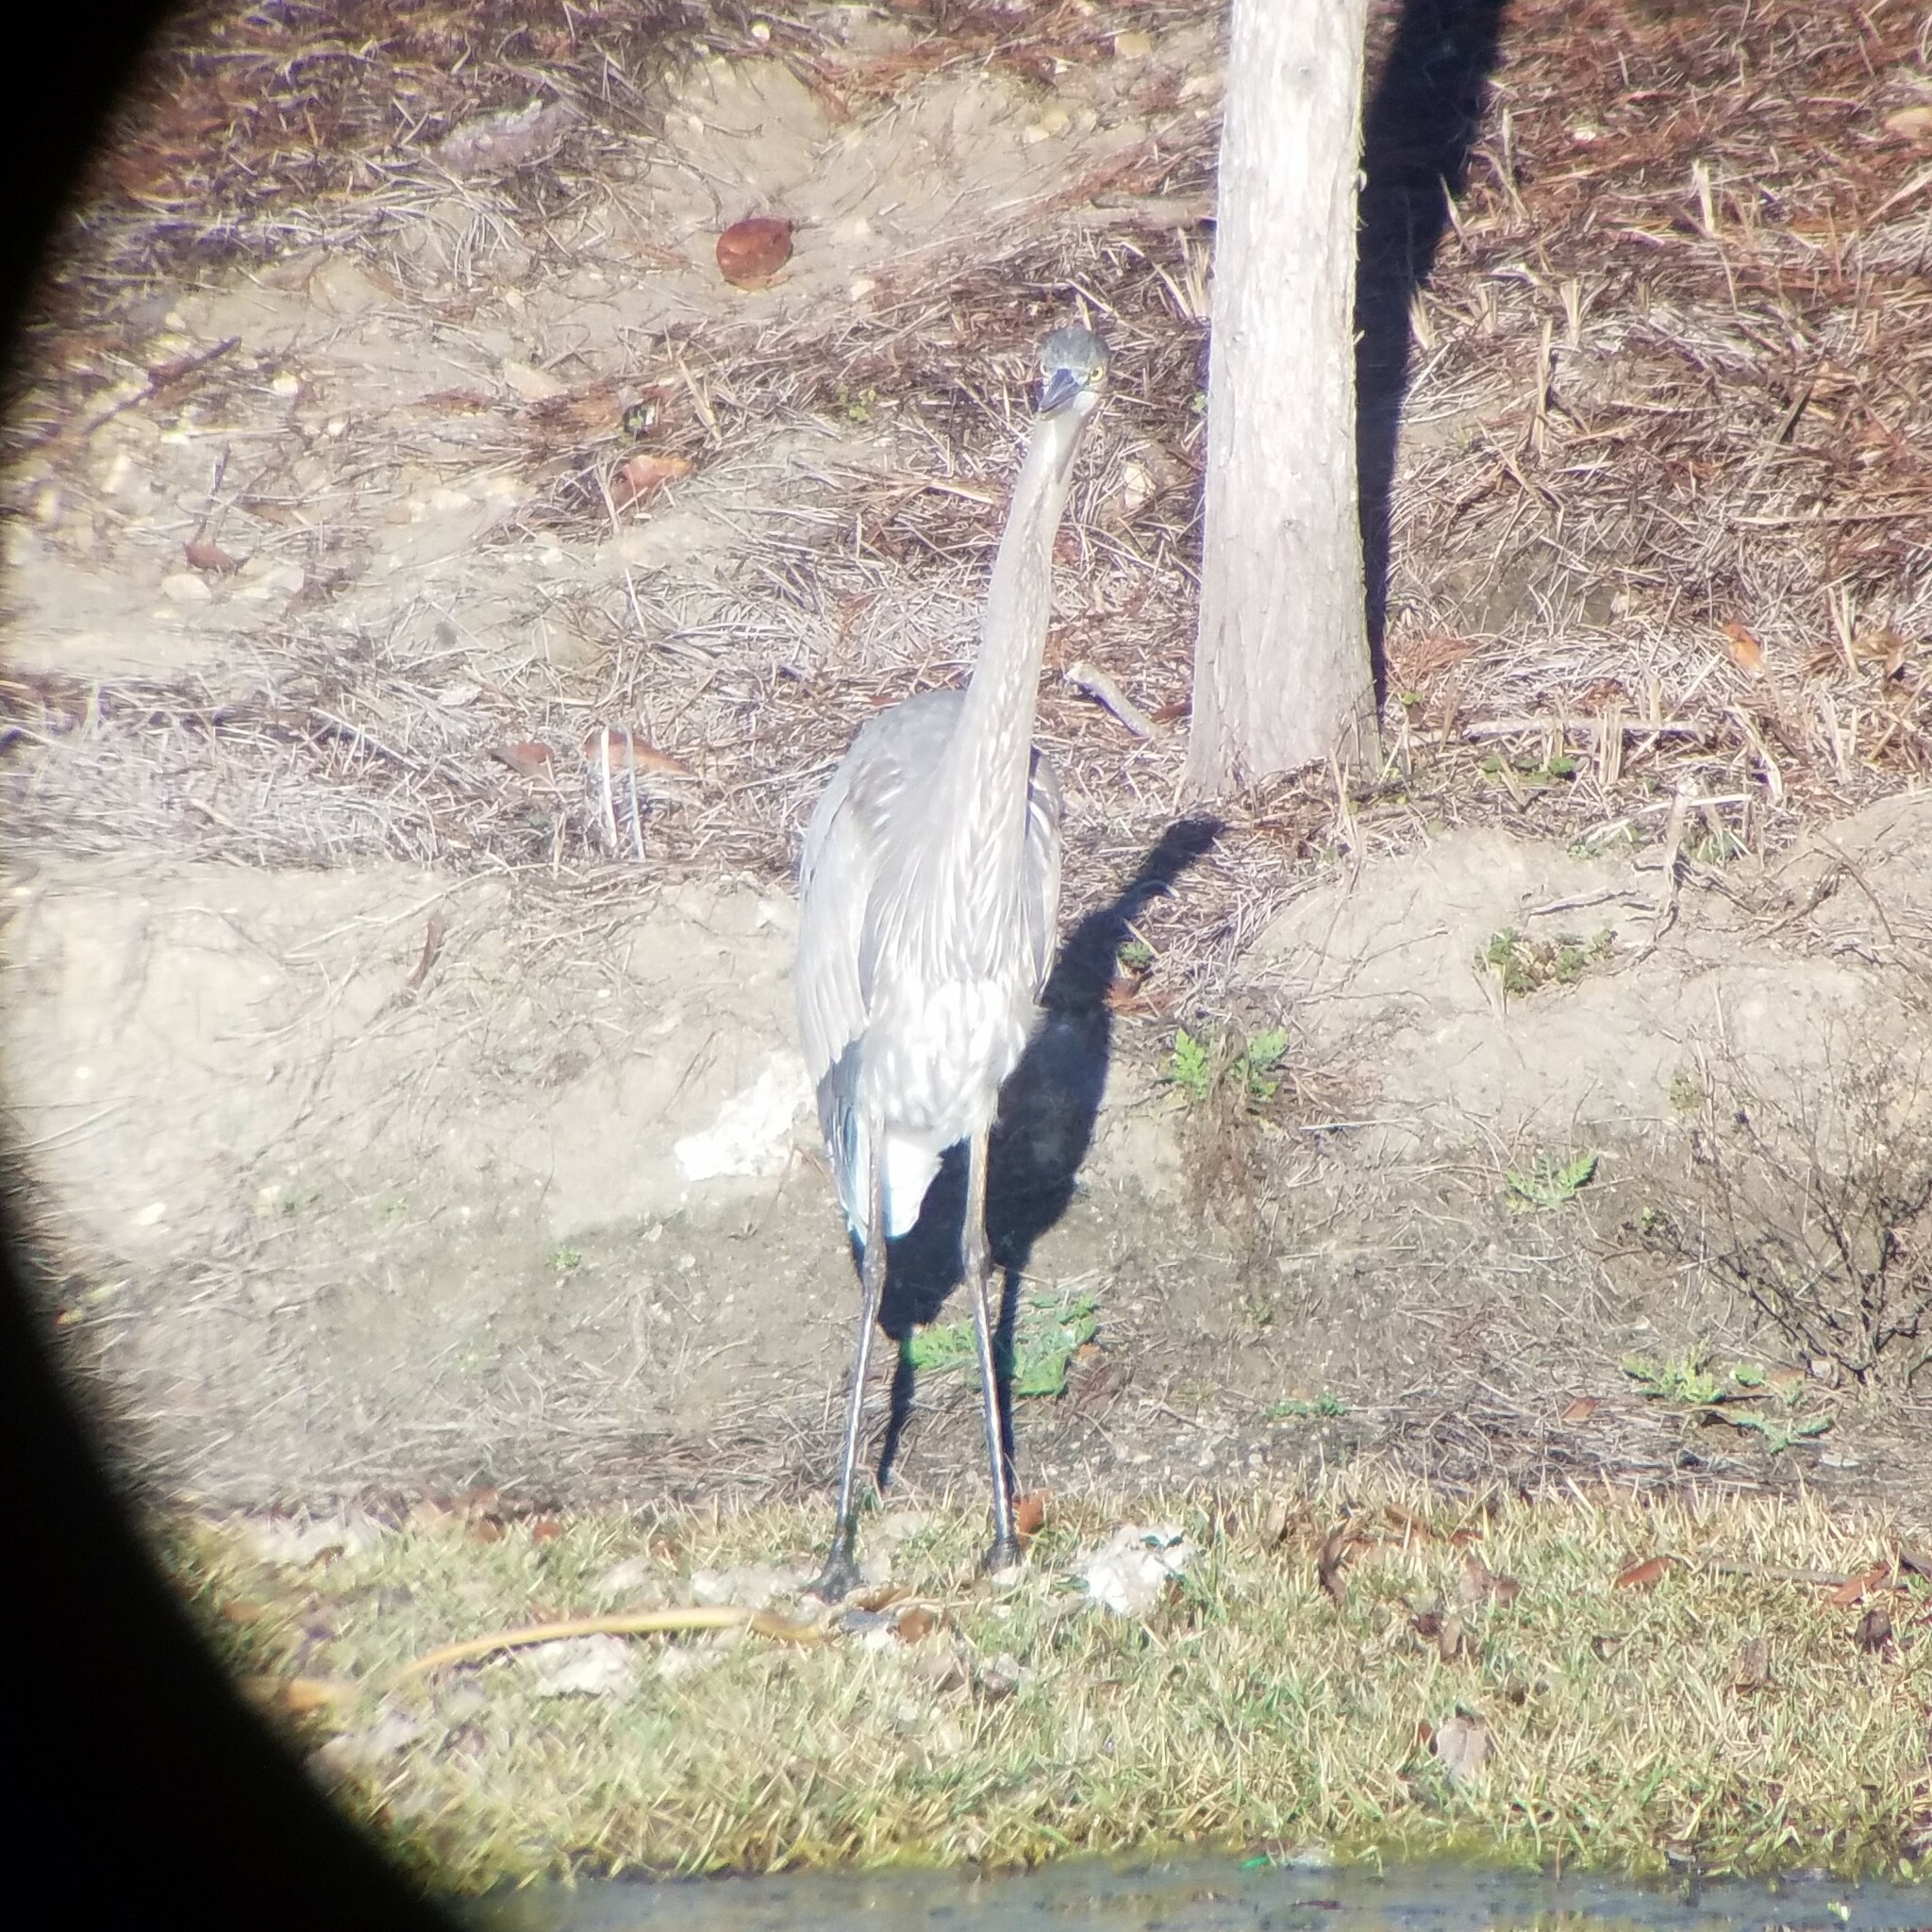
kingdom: Animalia
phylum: Chordata
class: Aves
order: Pelecaniformes
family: Ardeidae
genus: Ardea
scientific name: Ardea herodias
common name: Great blue heron
